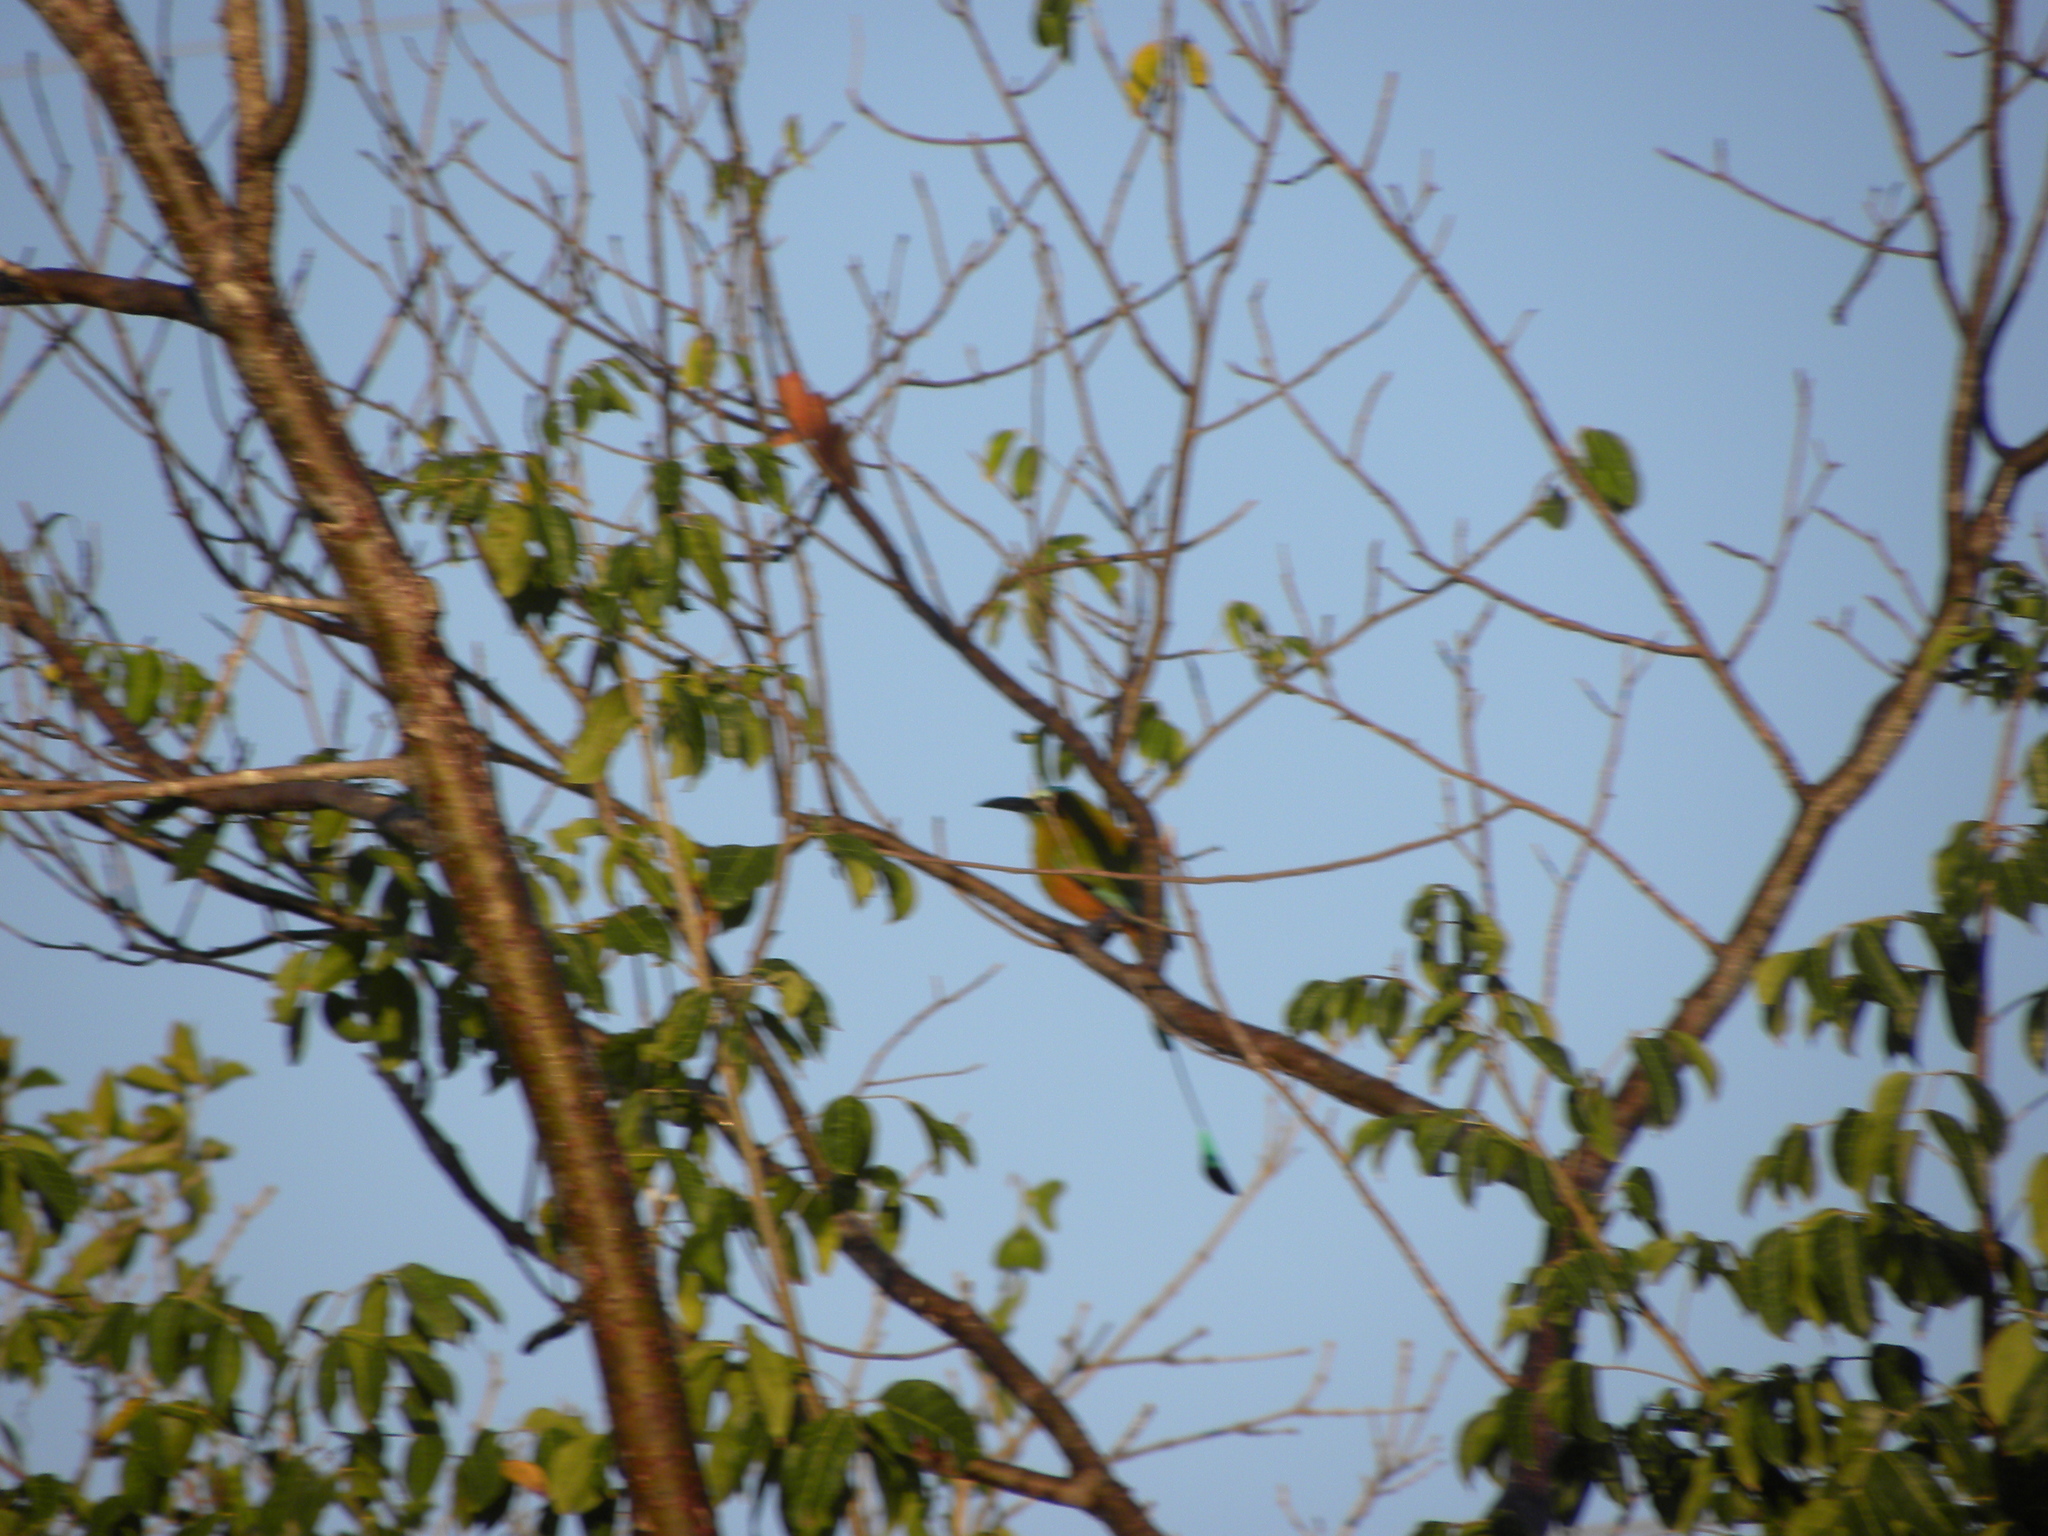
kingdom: Animalia
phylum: Chordata
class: Aves
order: Coraciiformes
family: Momotidae
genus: Eumomota
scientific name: Eumomota superciliosa
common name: Turquoise-browed motmot
